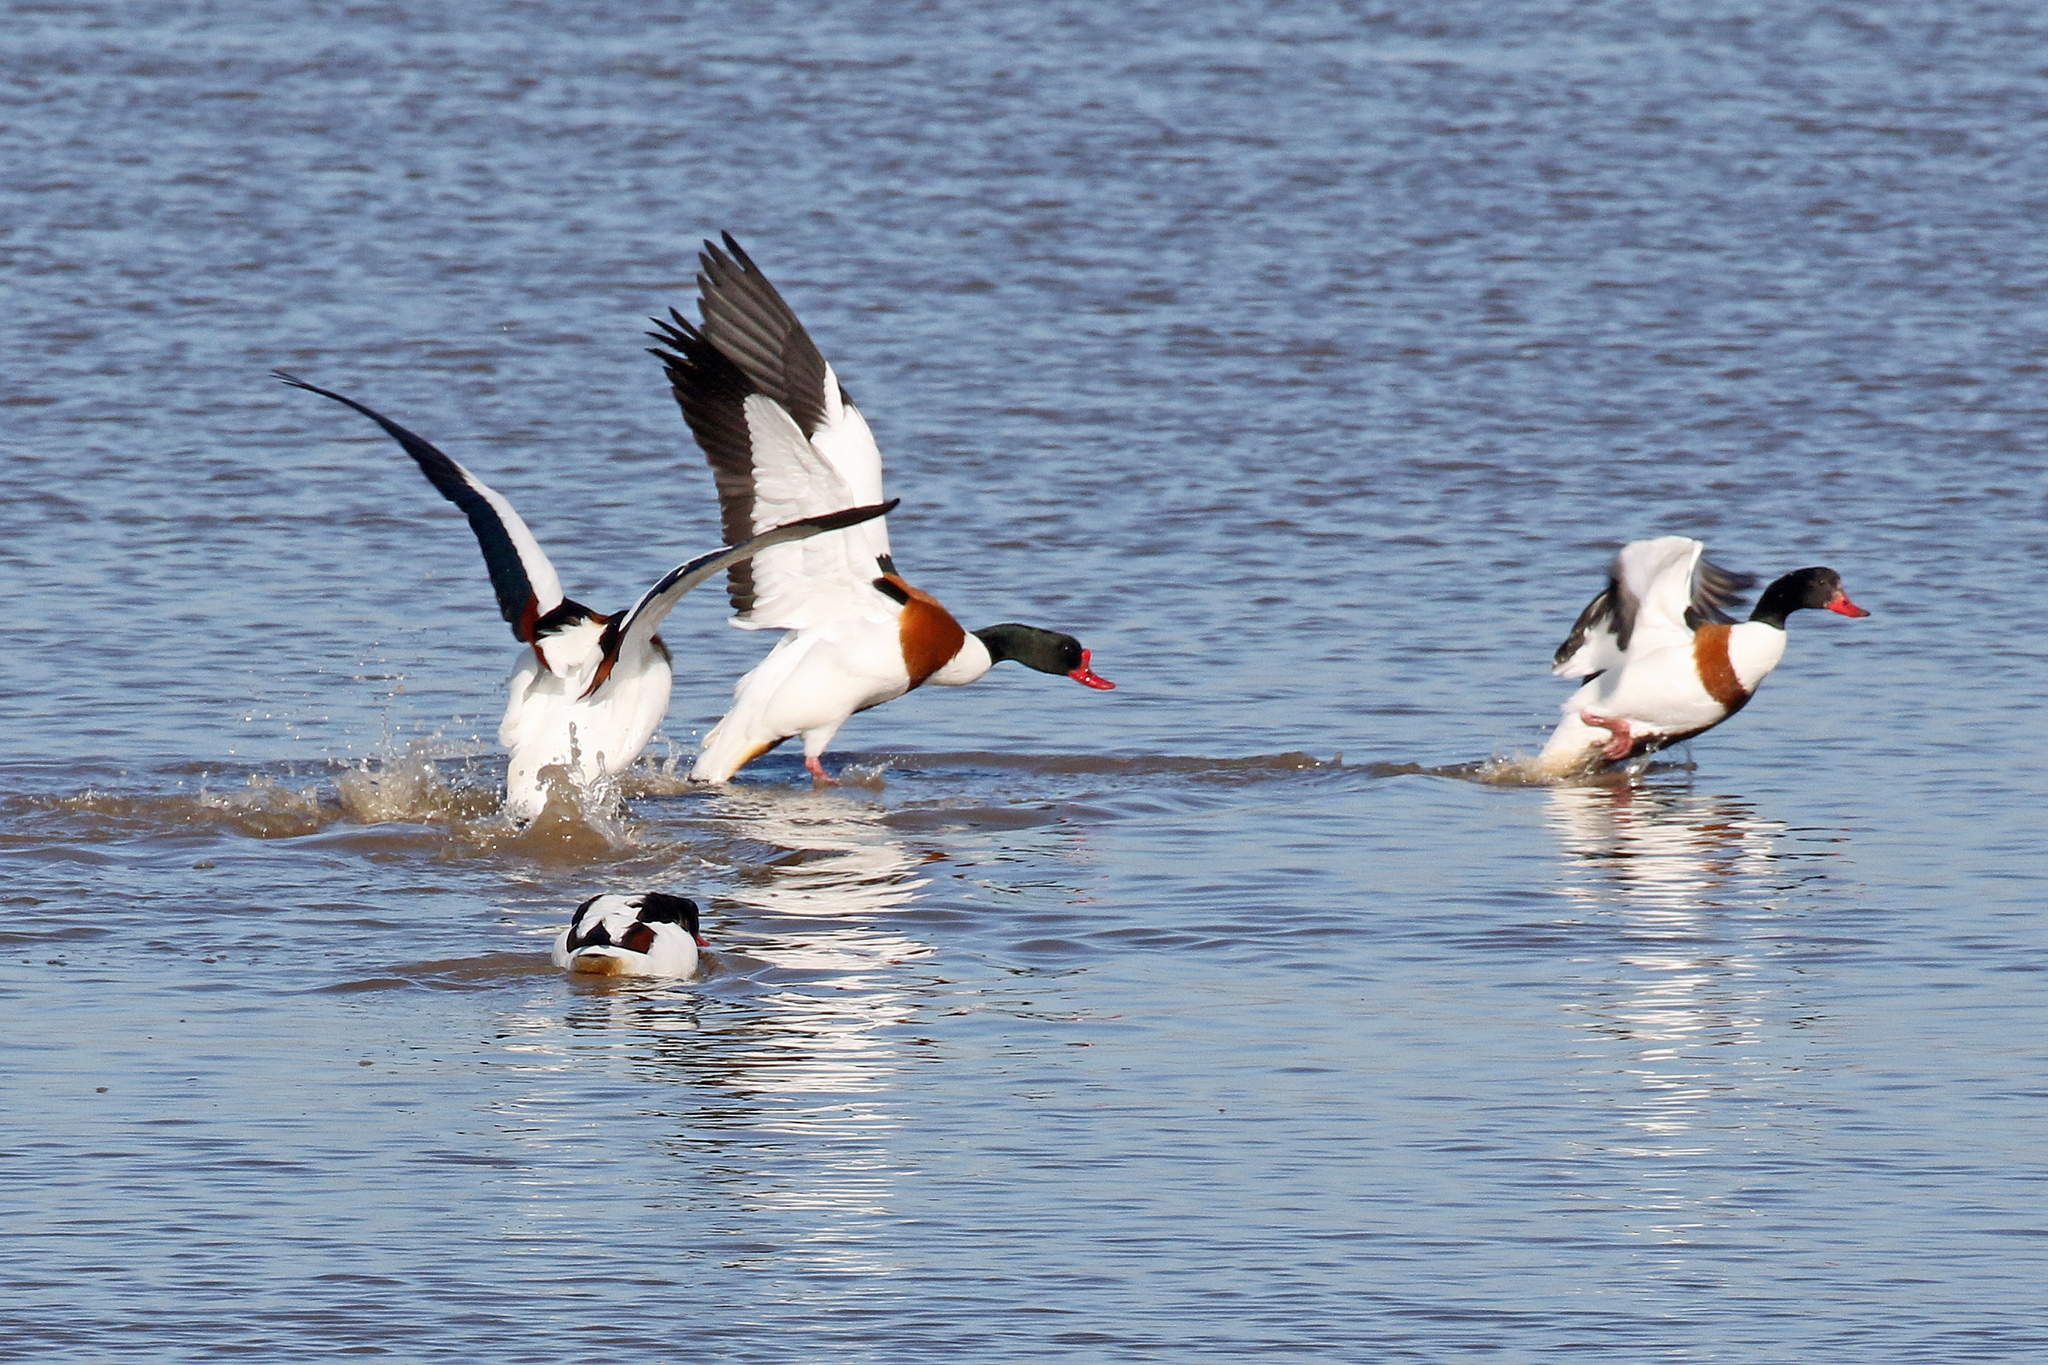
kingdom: Animalia
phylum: Chordata
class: Aves
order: Anseriformes
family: Anatidae
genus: Tadorna
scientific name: Tadorna tadorna
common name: Common shelduck
